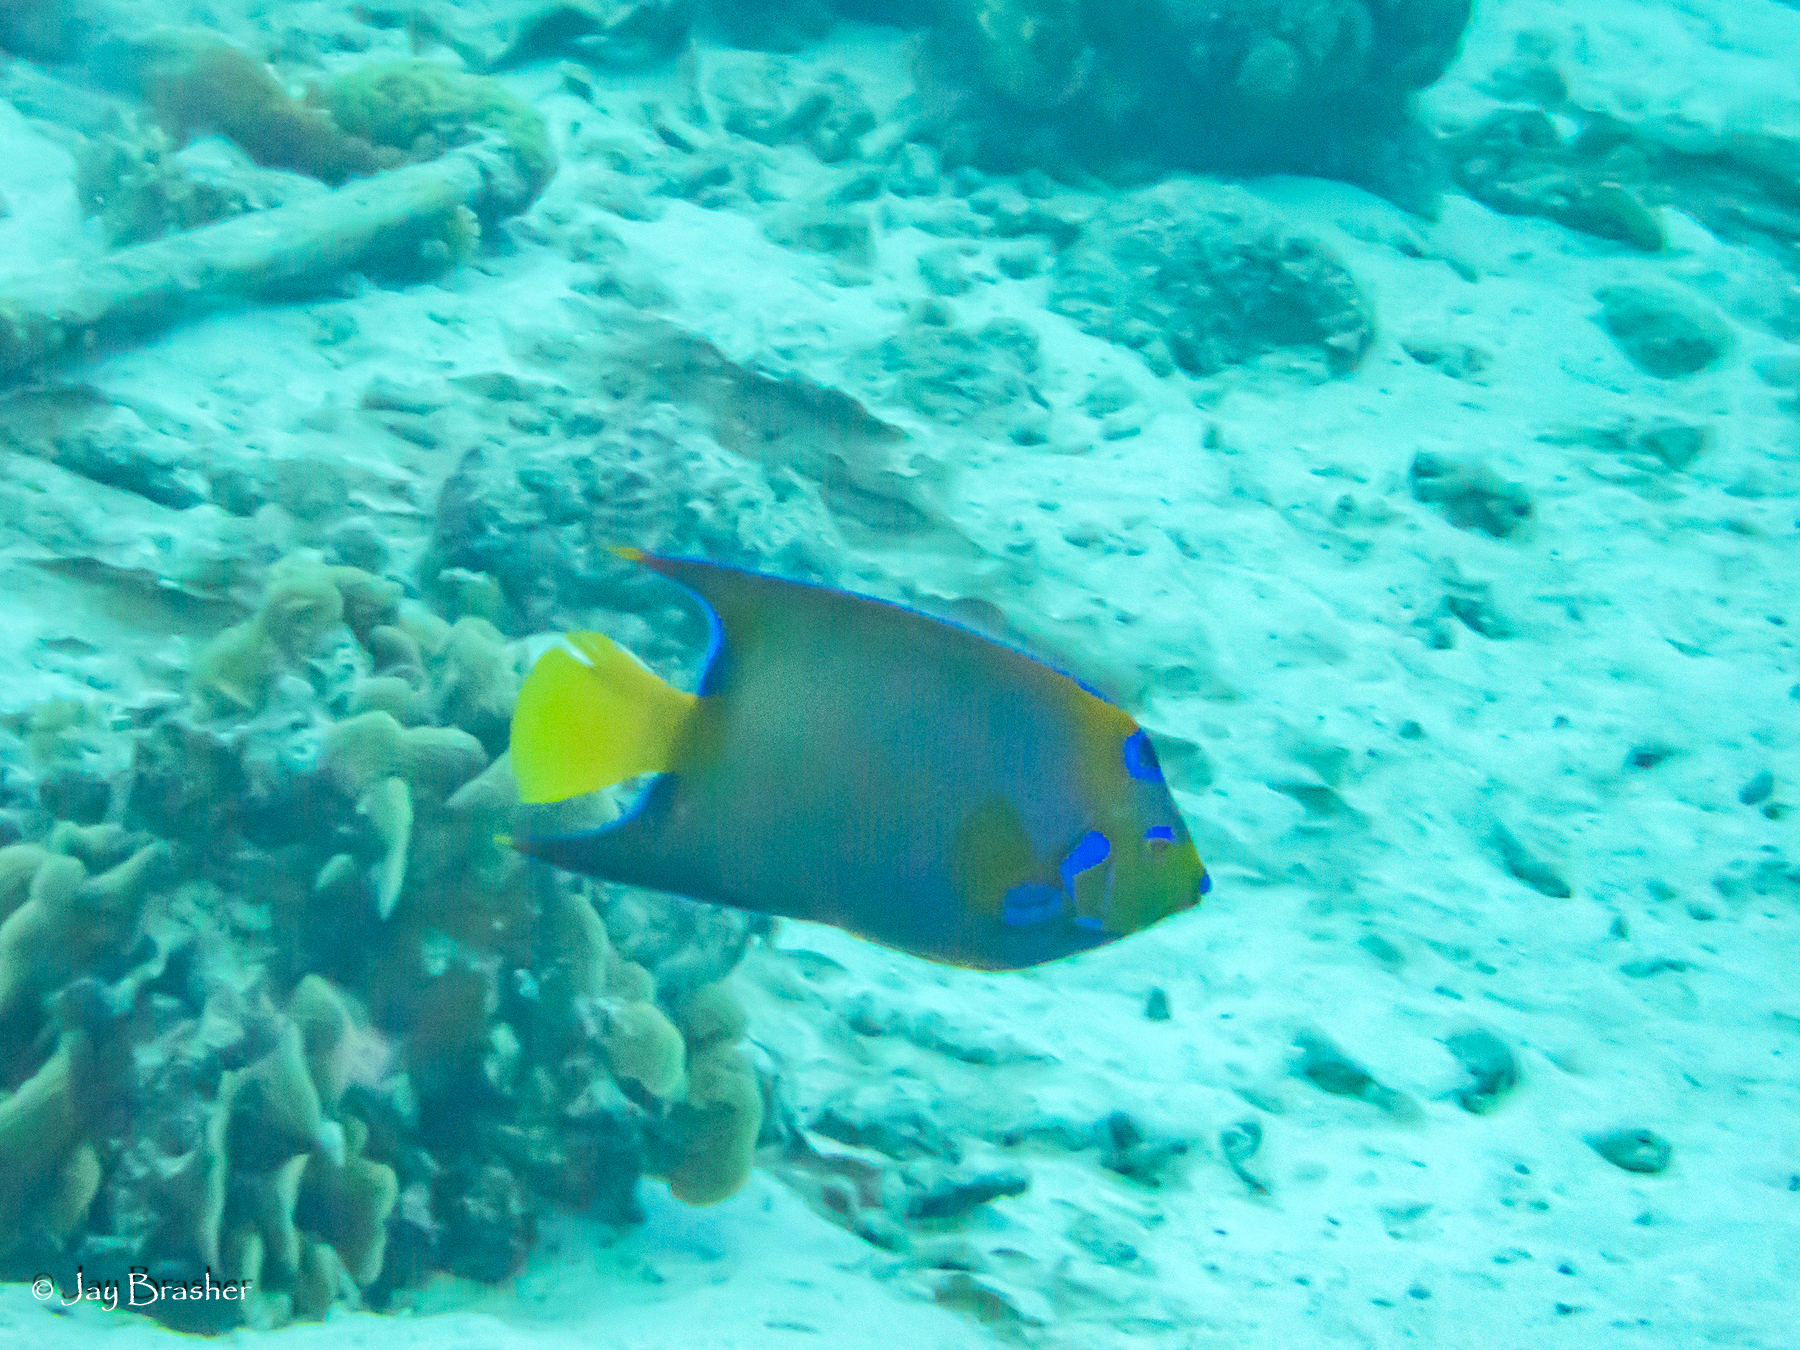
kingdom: Animalia
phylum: Chordata
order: Perciformes
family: Pomacanthidae
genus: Holacanthus
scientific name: Holacanthus ciliaris
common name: Queen angelfish
